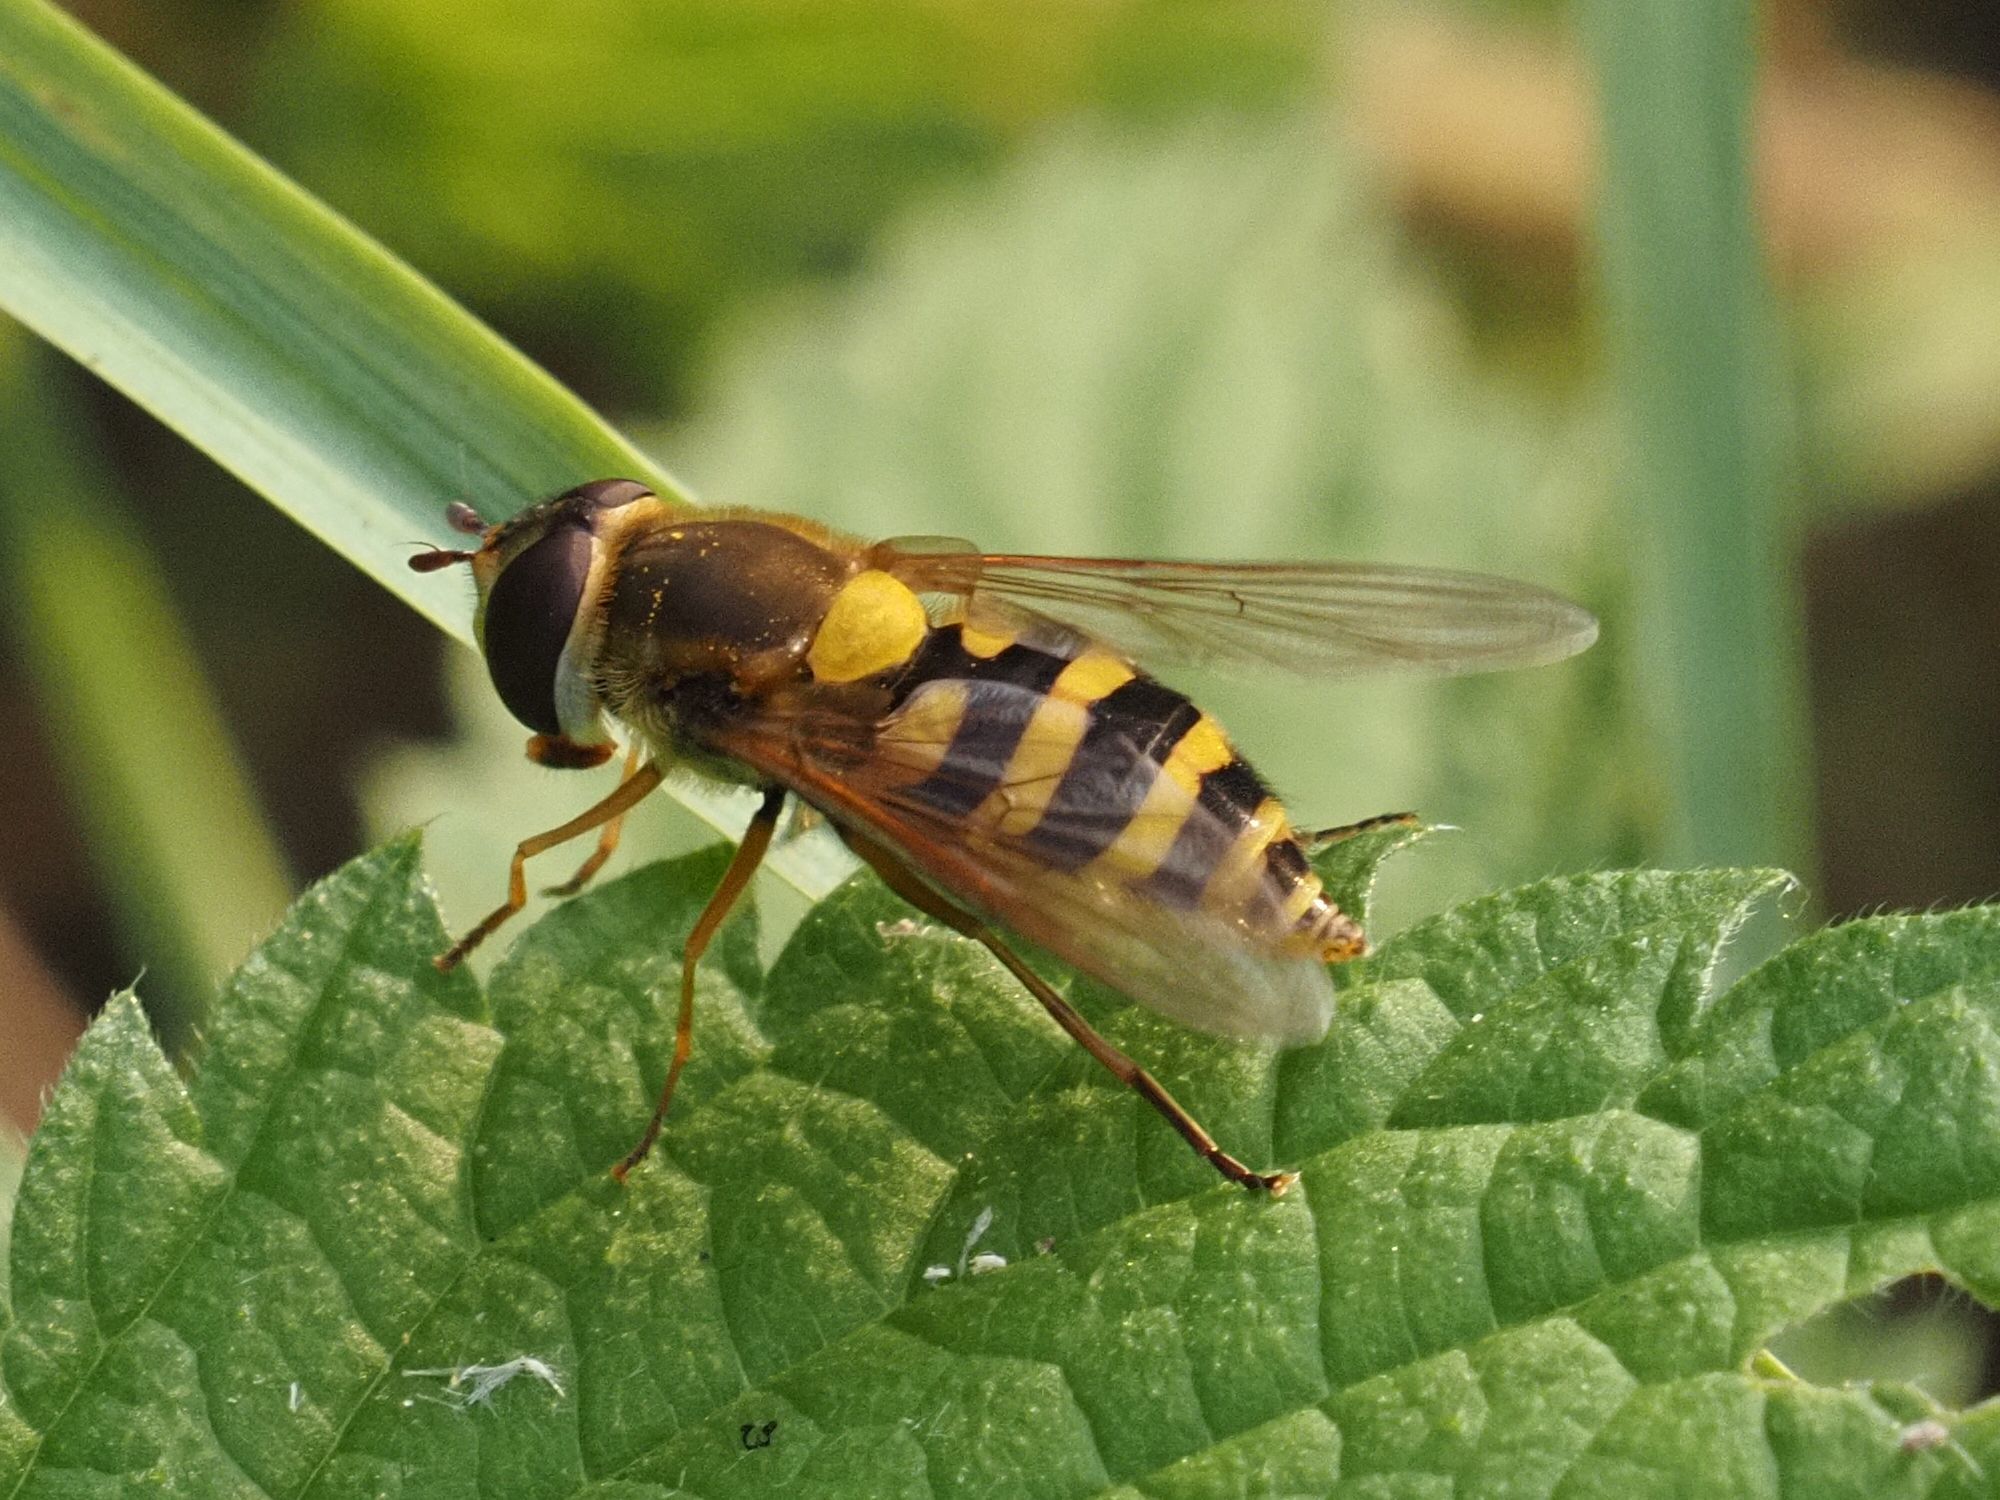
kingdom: Animalia
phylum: Arthropoda
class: Insecta
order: Diptera
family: Syrphidae
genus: Syrphus
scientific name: Syrphus ribesii
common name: Common flower fly
